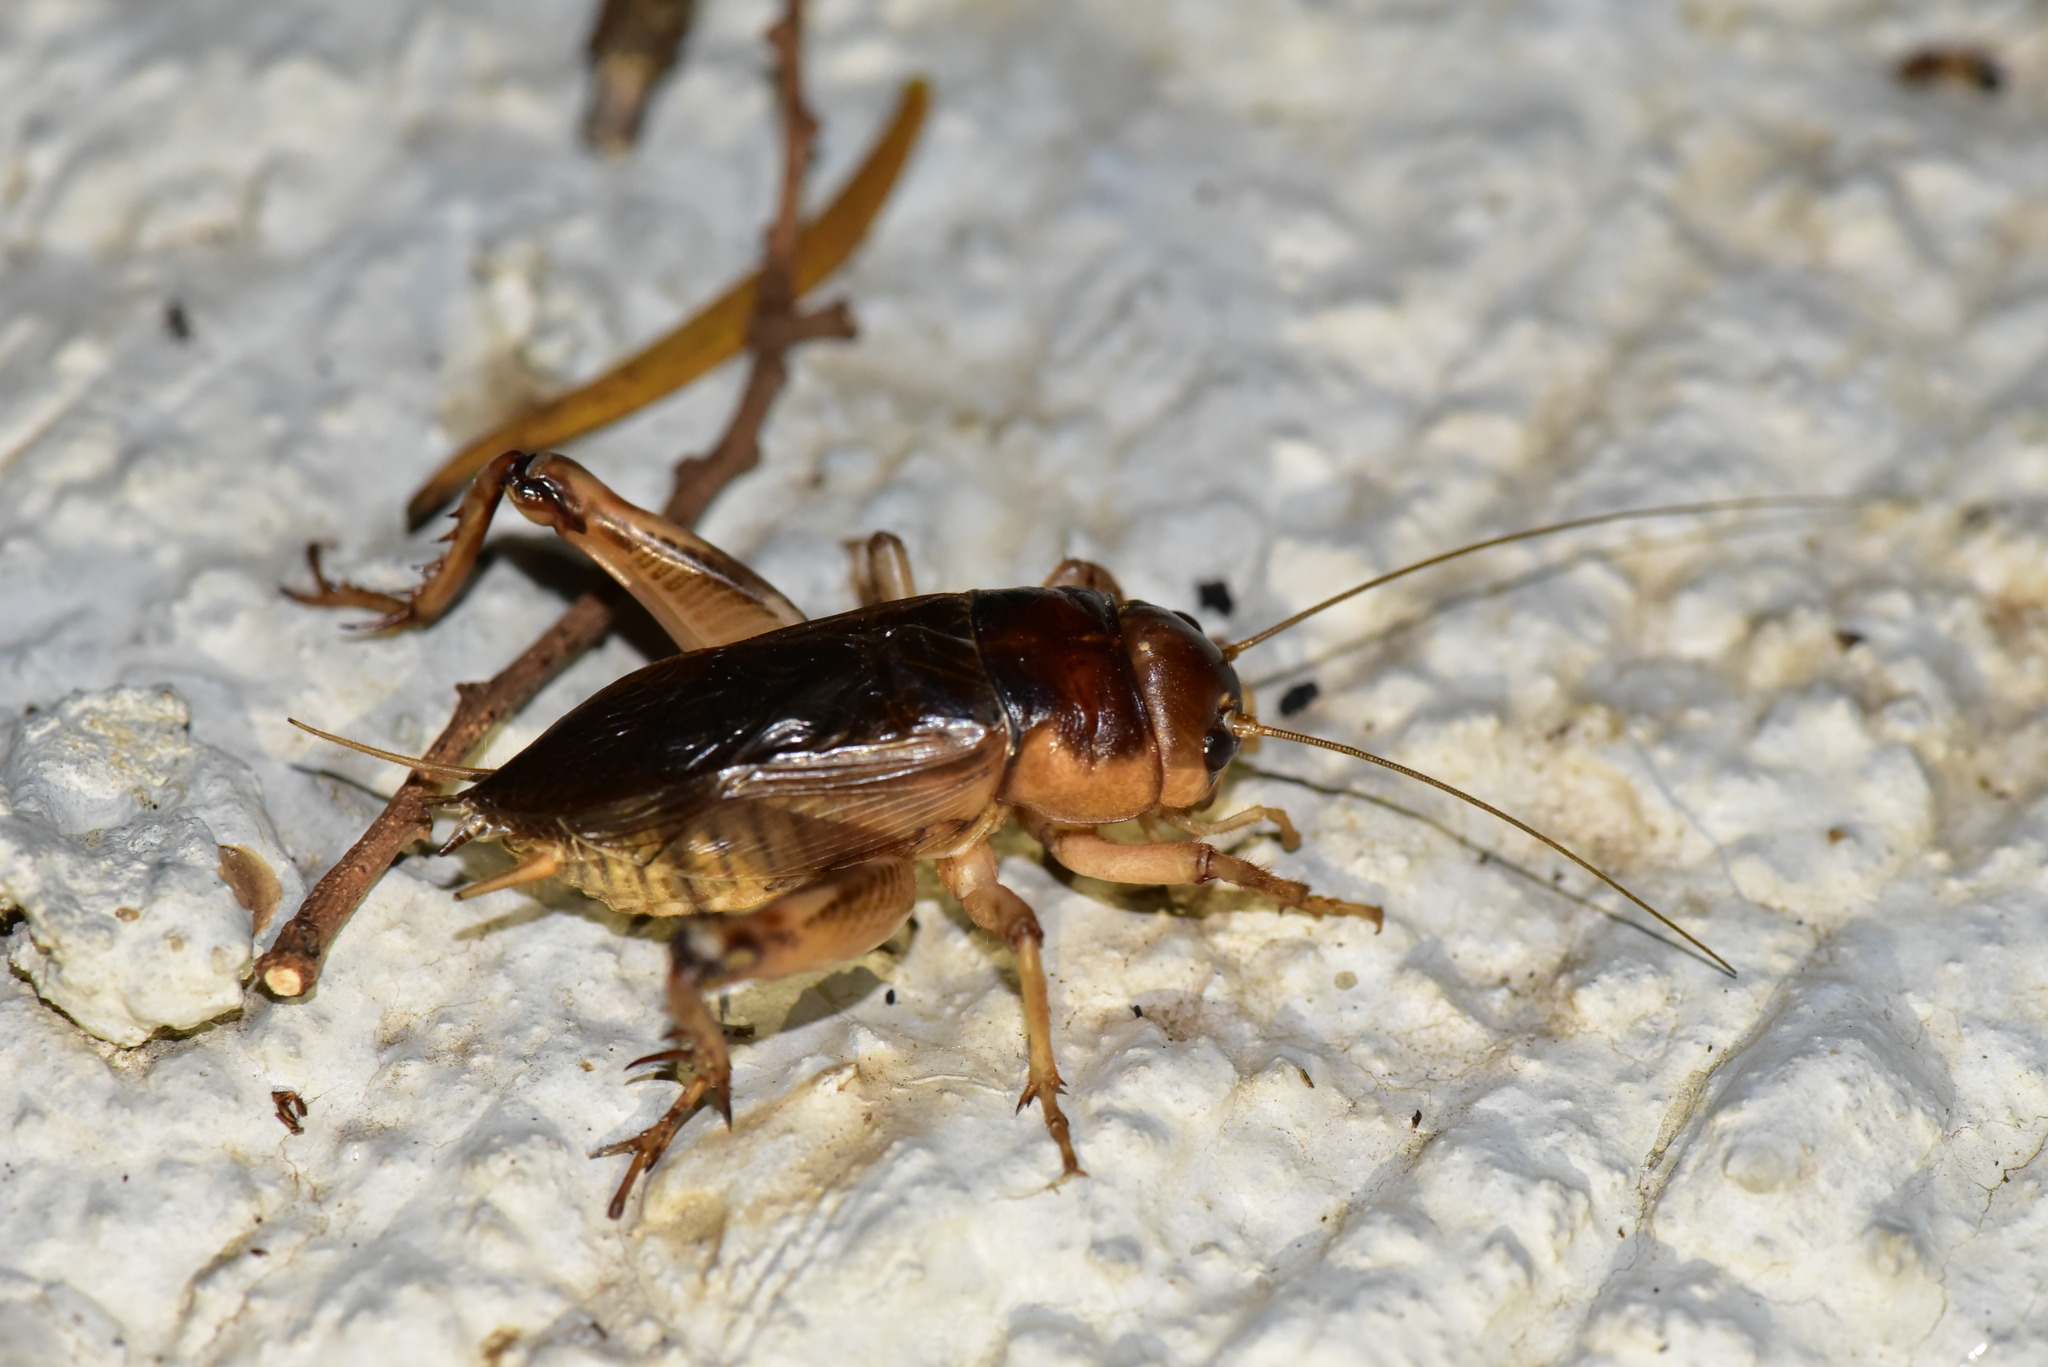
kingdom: Animalia
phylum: Arthropoda
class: Insecta
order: Orthoptera
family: Gryllidae
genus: Tarbinskiellus
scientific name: Tarbinskiellus portentosus
